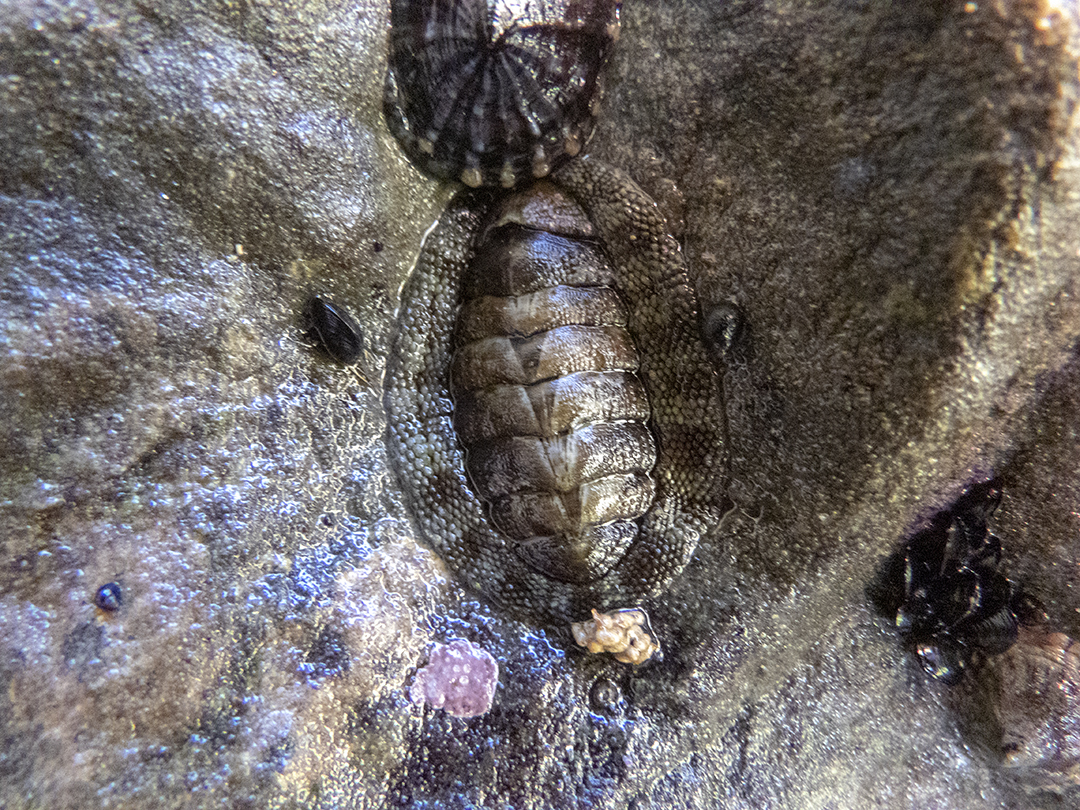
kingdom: Animalia
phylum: Mollusca
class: Polyplacophora
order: Chitonida
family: Chitonidae
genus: Sypharochiton
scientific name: Sypharochiton pelliserpentis
